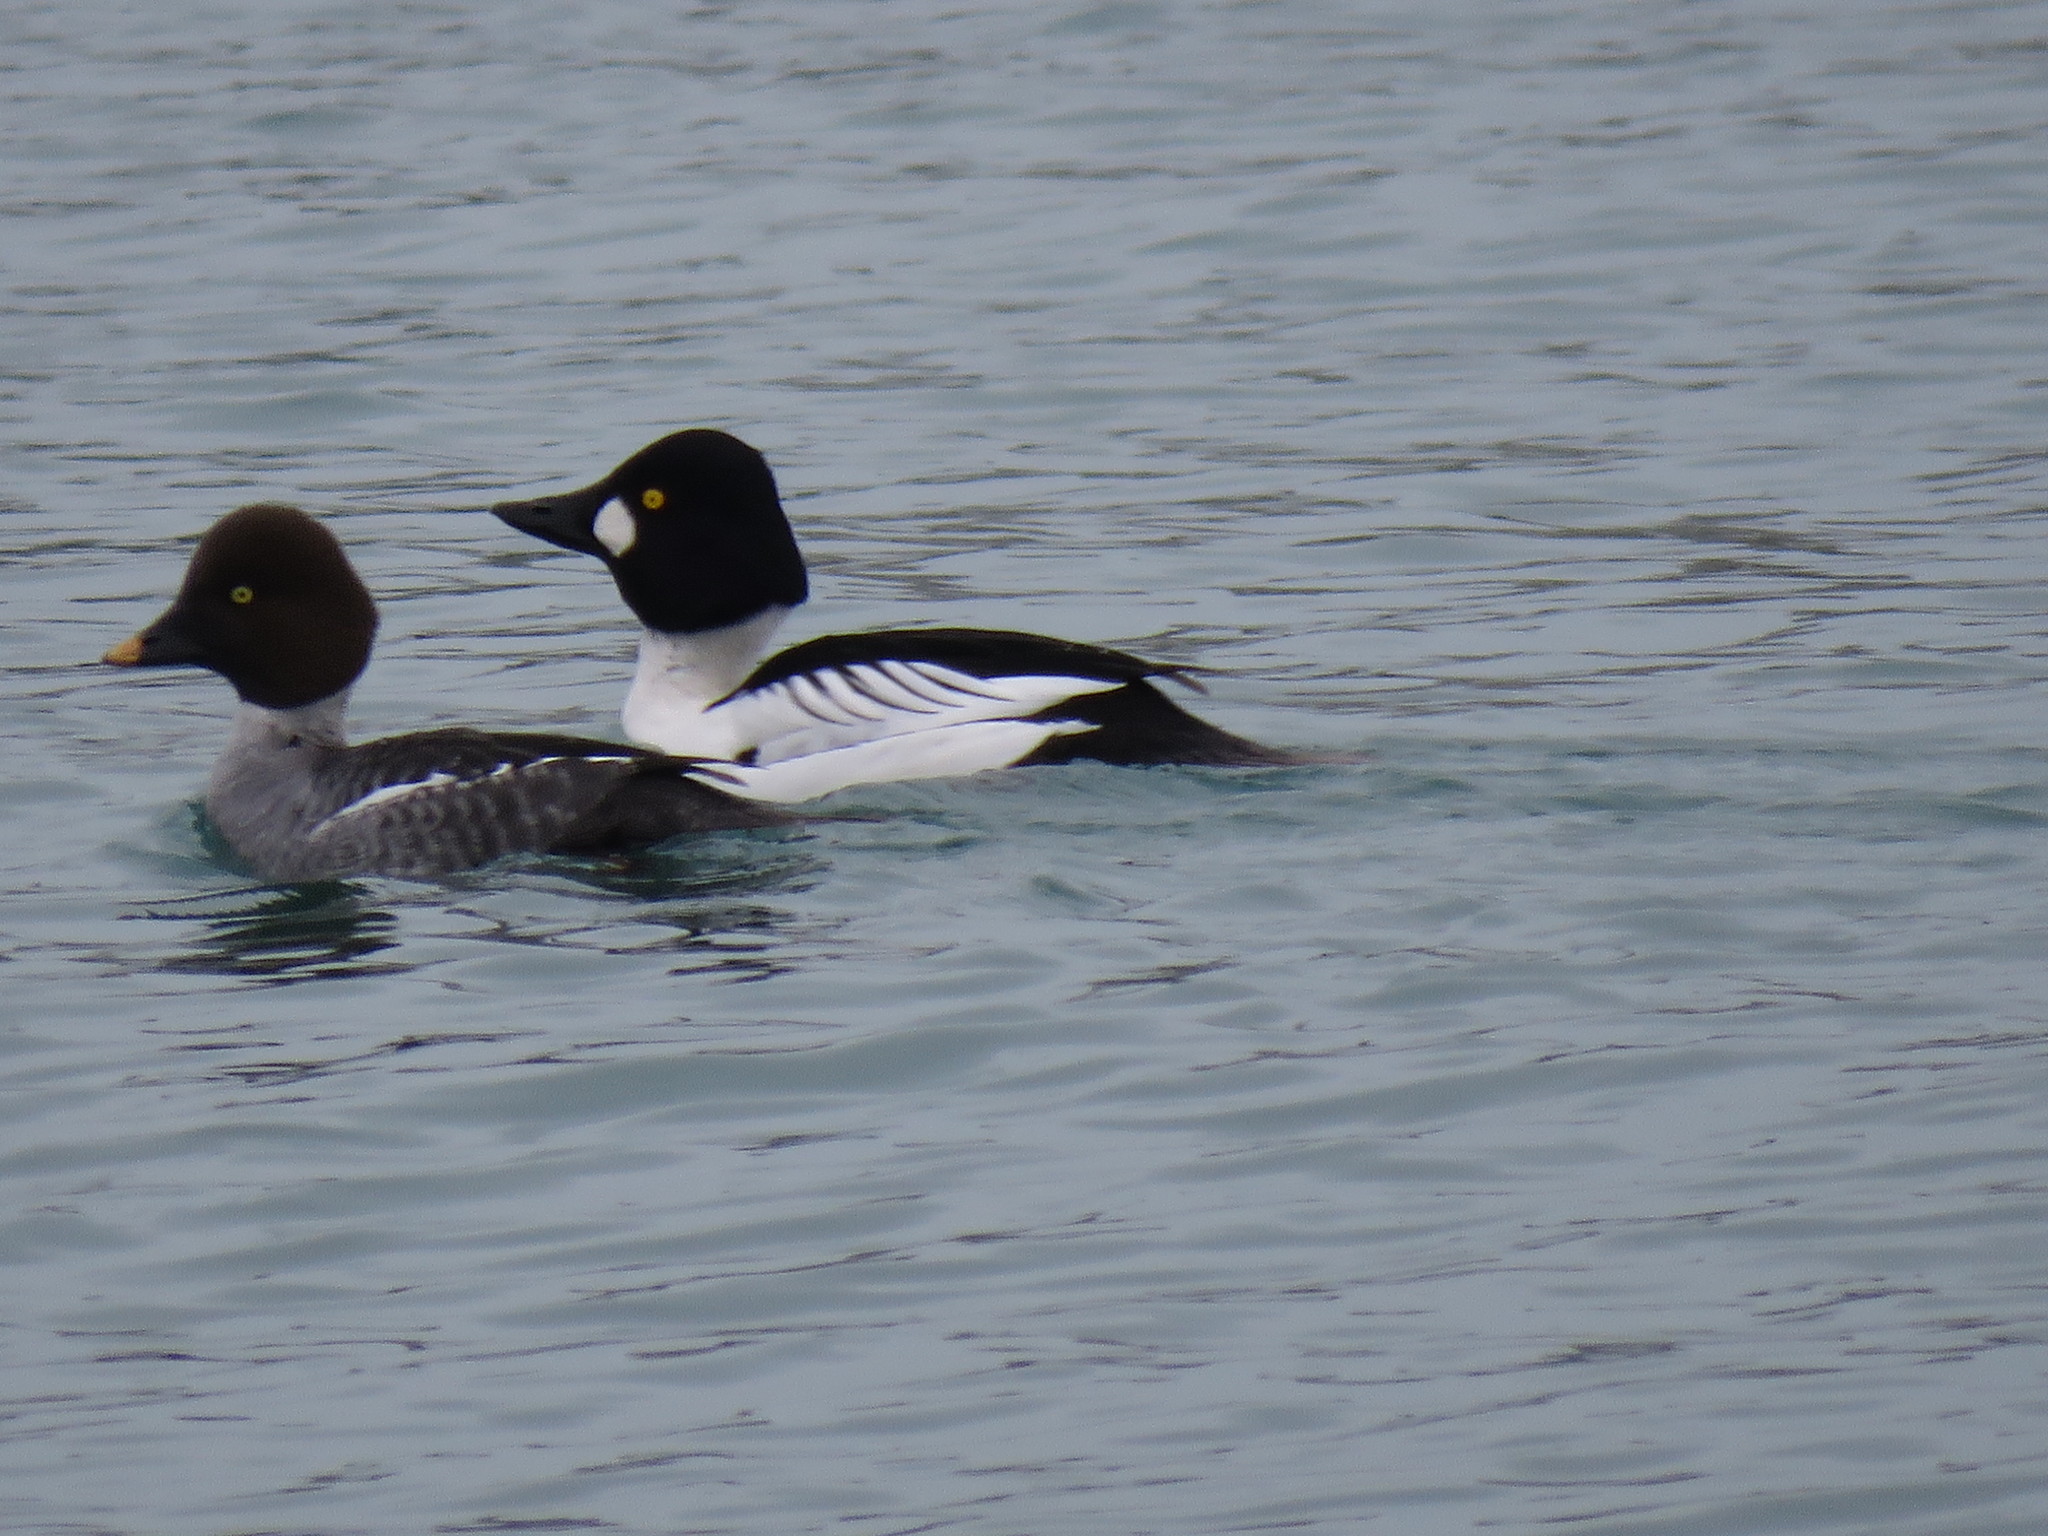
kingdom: Animalia
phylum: Chordata
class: Aves
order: Anseriformes
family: Anatidae
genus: Bucephala
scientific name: Bucephala clangula
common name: Common goldeneye
